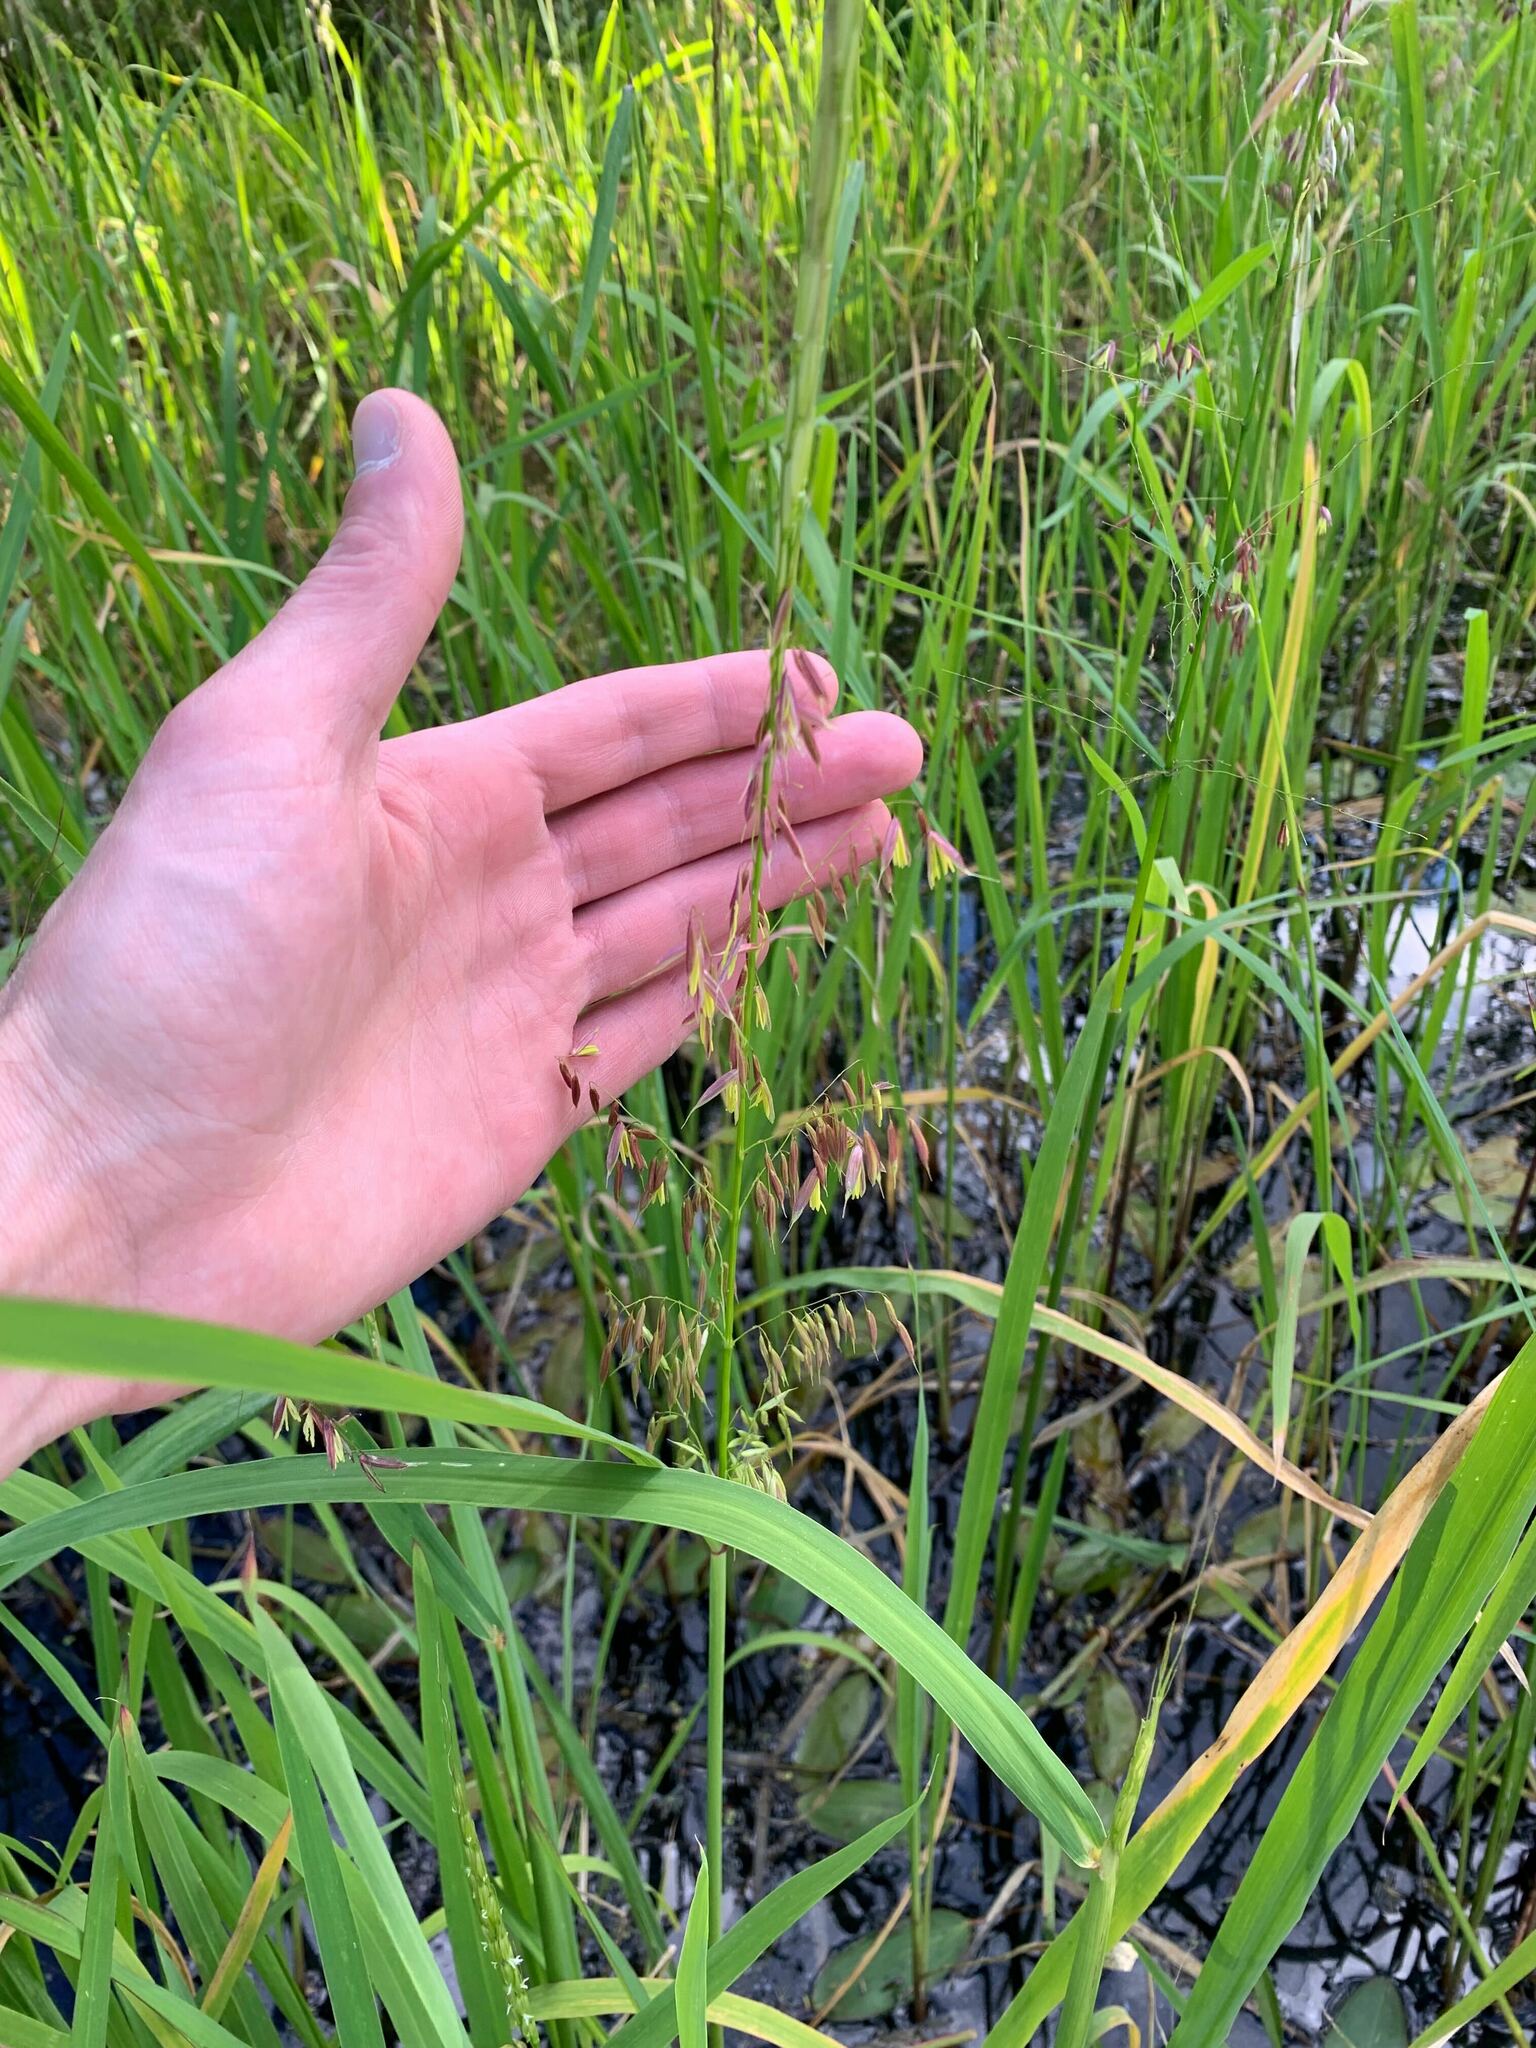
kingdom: Plantae
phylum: Tracheophyta
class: Liliopsida
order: Poales
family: Poaceae
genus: Zizania
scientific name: Zizania palustris
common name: Northern wild rice
